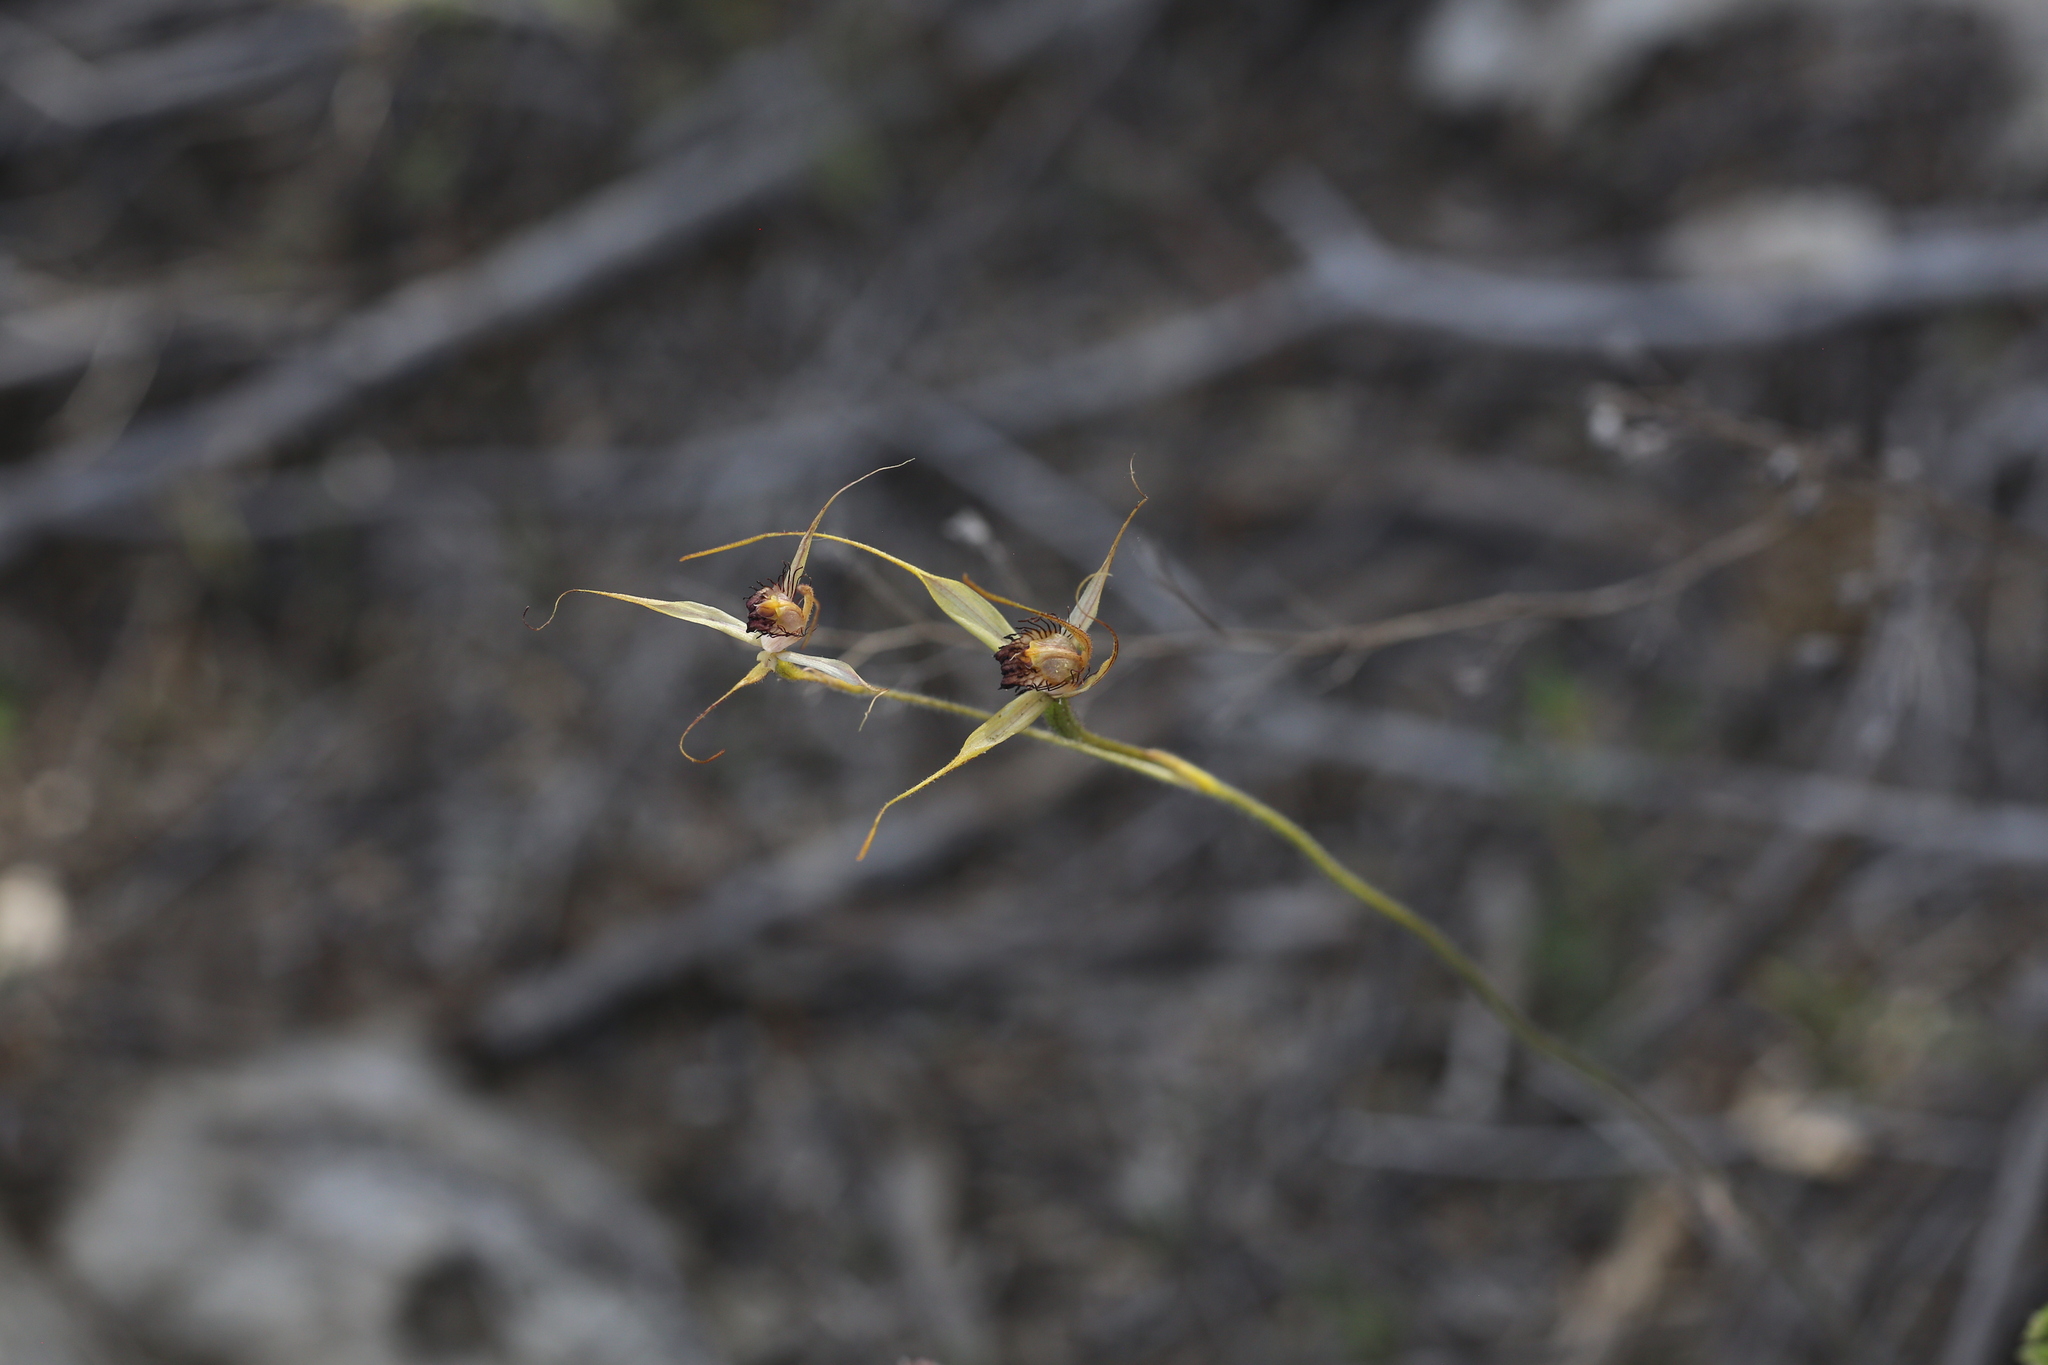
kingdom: Plantae
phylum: Tracheophyta
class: Liliopsida
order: Asparagales
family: Orchidaceae
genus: Caladenia
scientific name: Caladenia georgei
